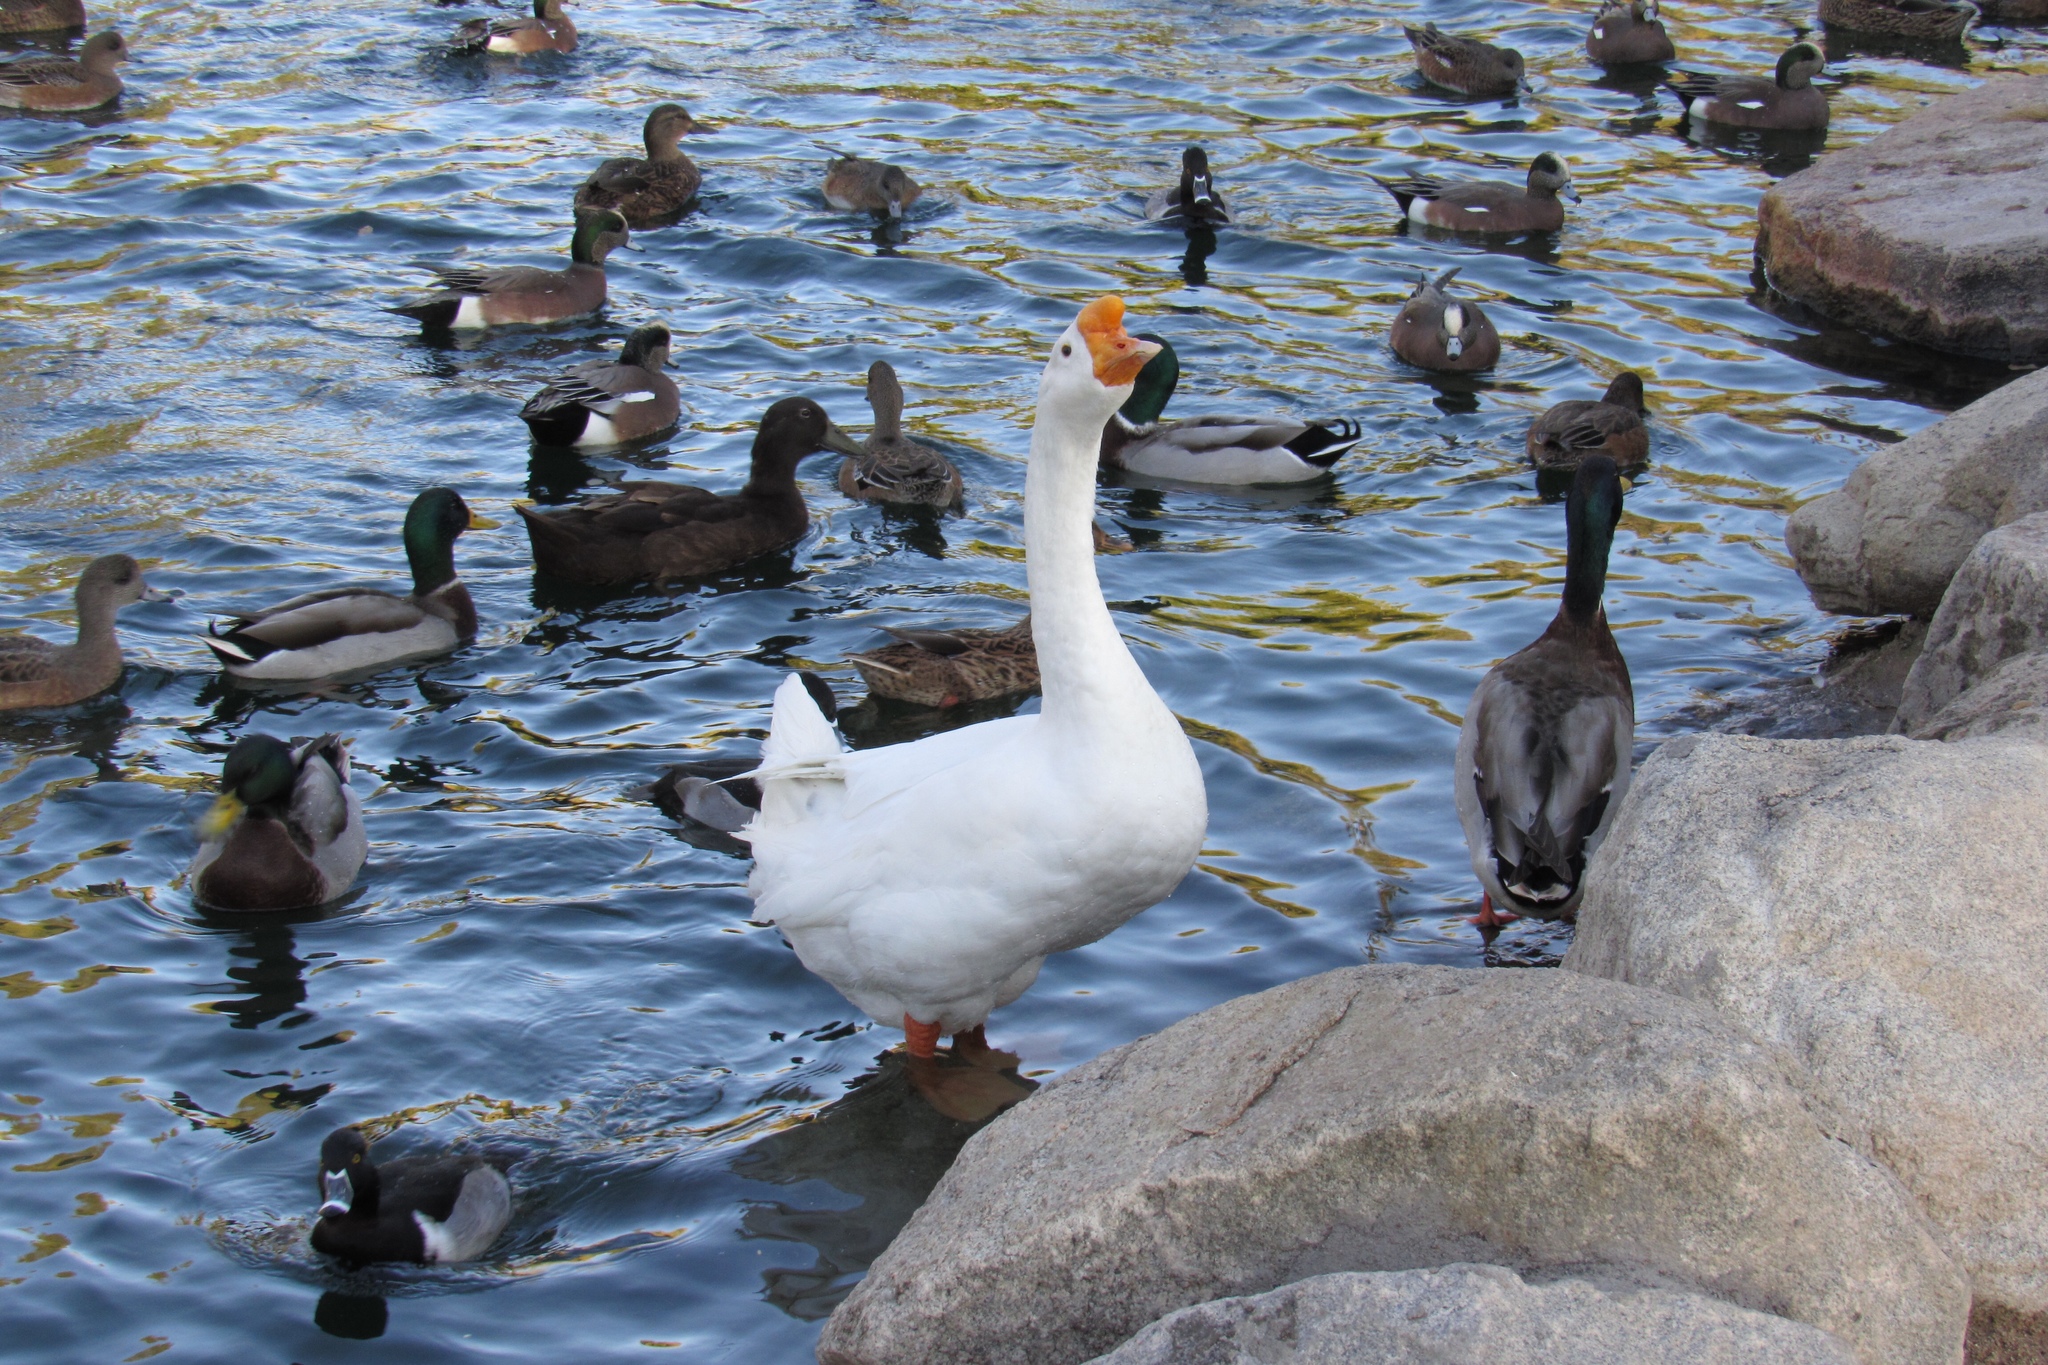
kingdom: Animalia
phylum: Chordata
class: Aves
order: Anseriformes
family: Anatidae
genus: Anser
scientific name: Anser cygnoides
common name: Swan goose
